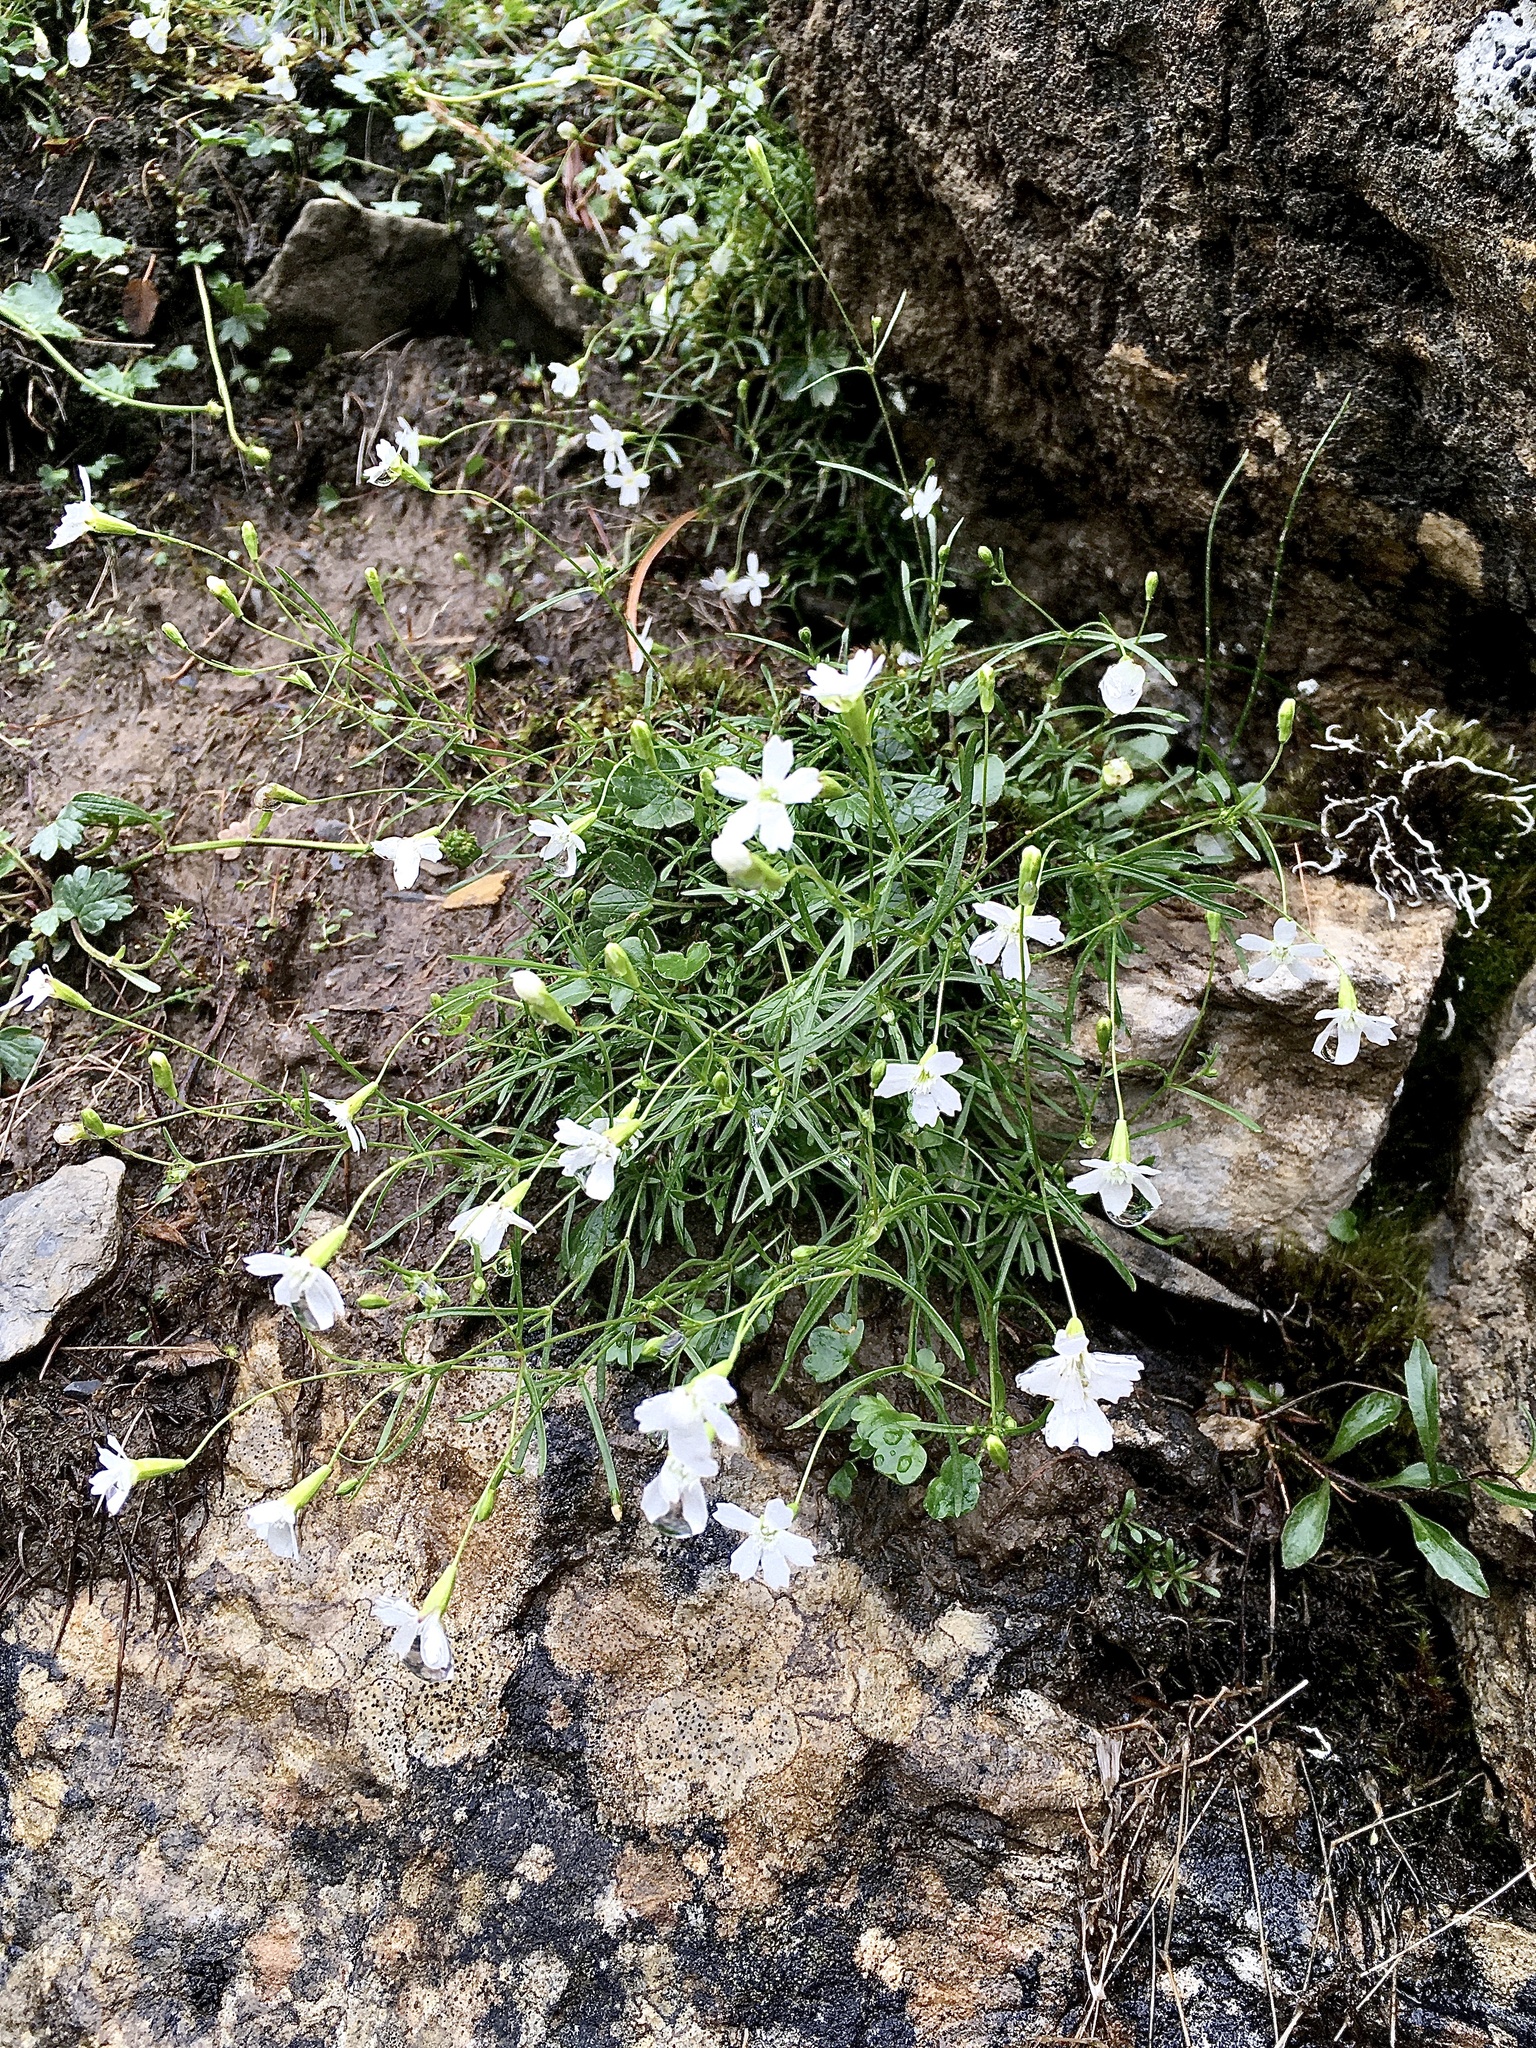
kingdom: Plantae
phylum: Tracheophyta
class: Magnoliopsida
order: Caryophyllales
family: Caryophyllaceae
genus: Heliosperma
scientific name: Heliosperma pusillum
